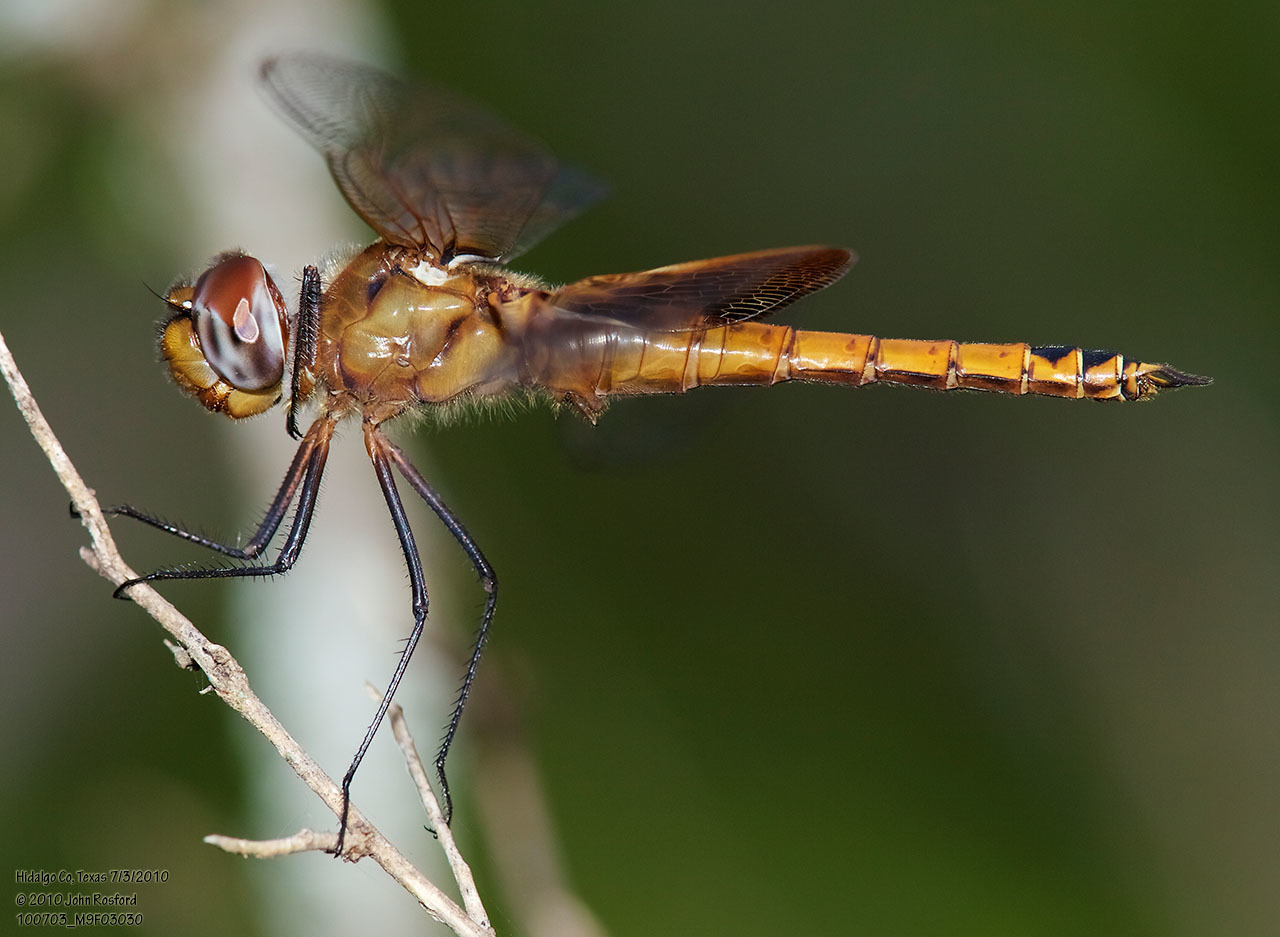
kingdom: Animalia
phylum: Arthropoda
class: Insecta
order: Odonata
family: Libellulidae
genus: Tramea
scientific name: Tramea onusta
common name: Red saddlebags
